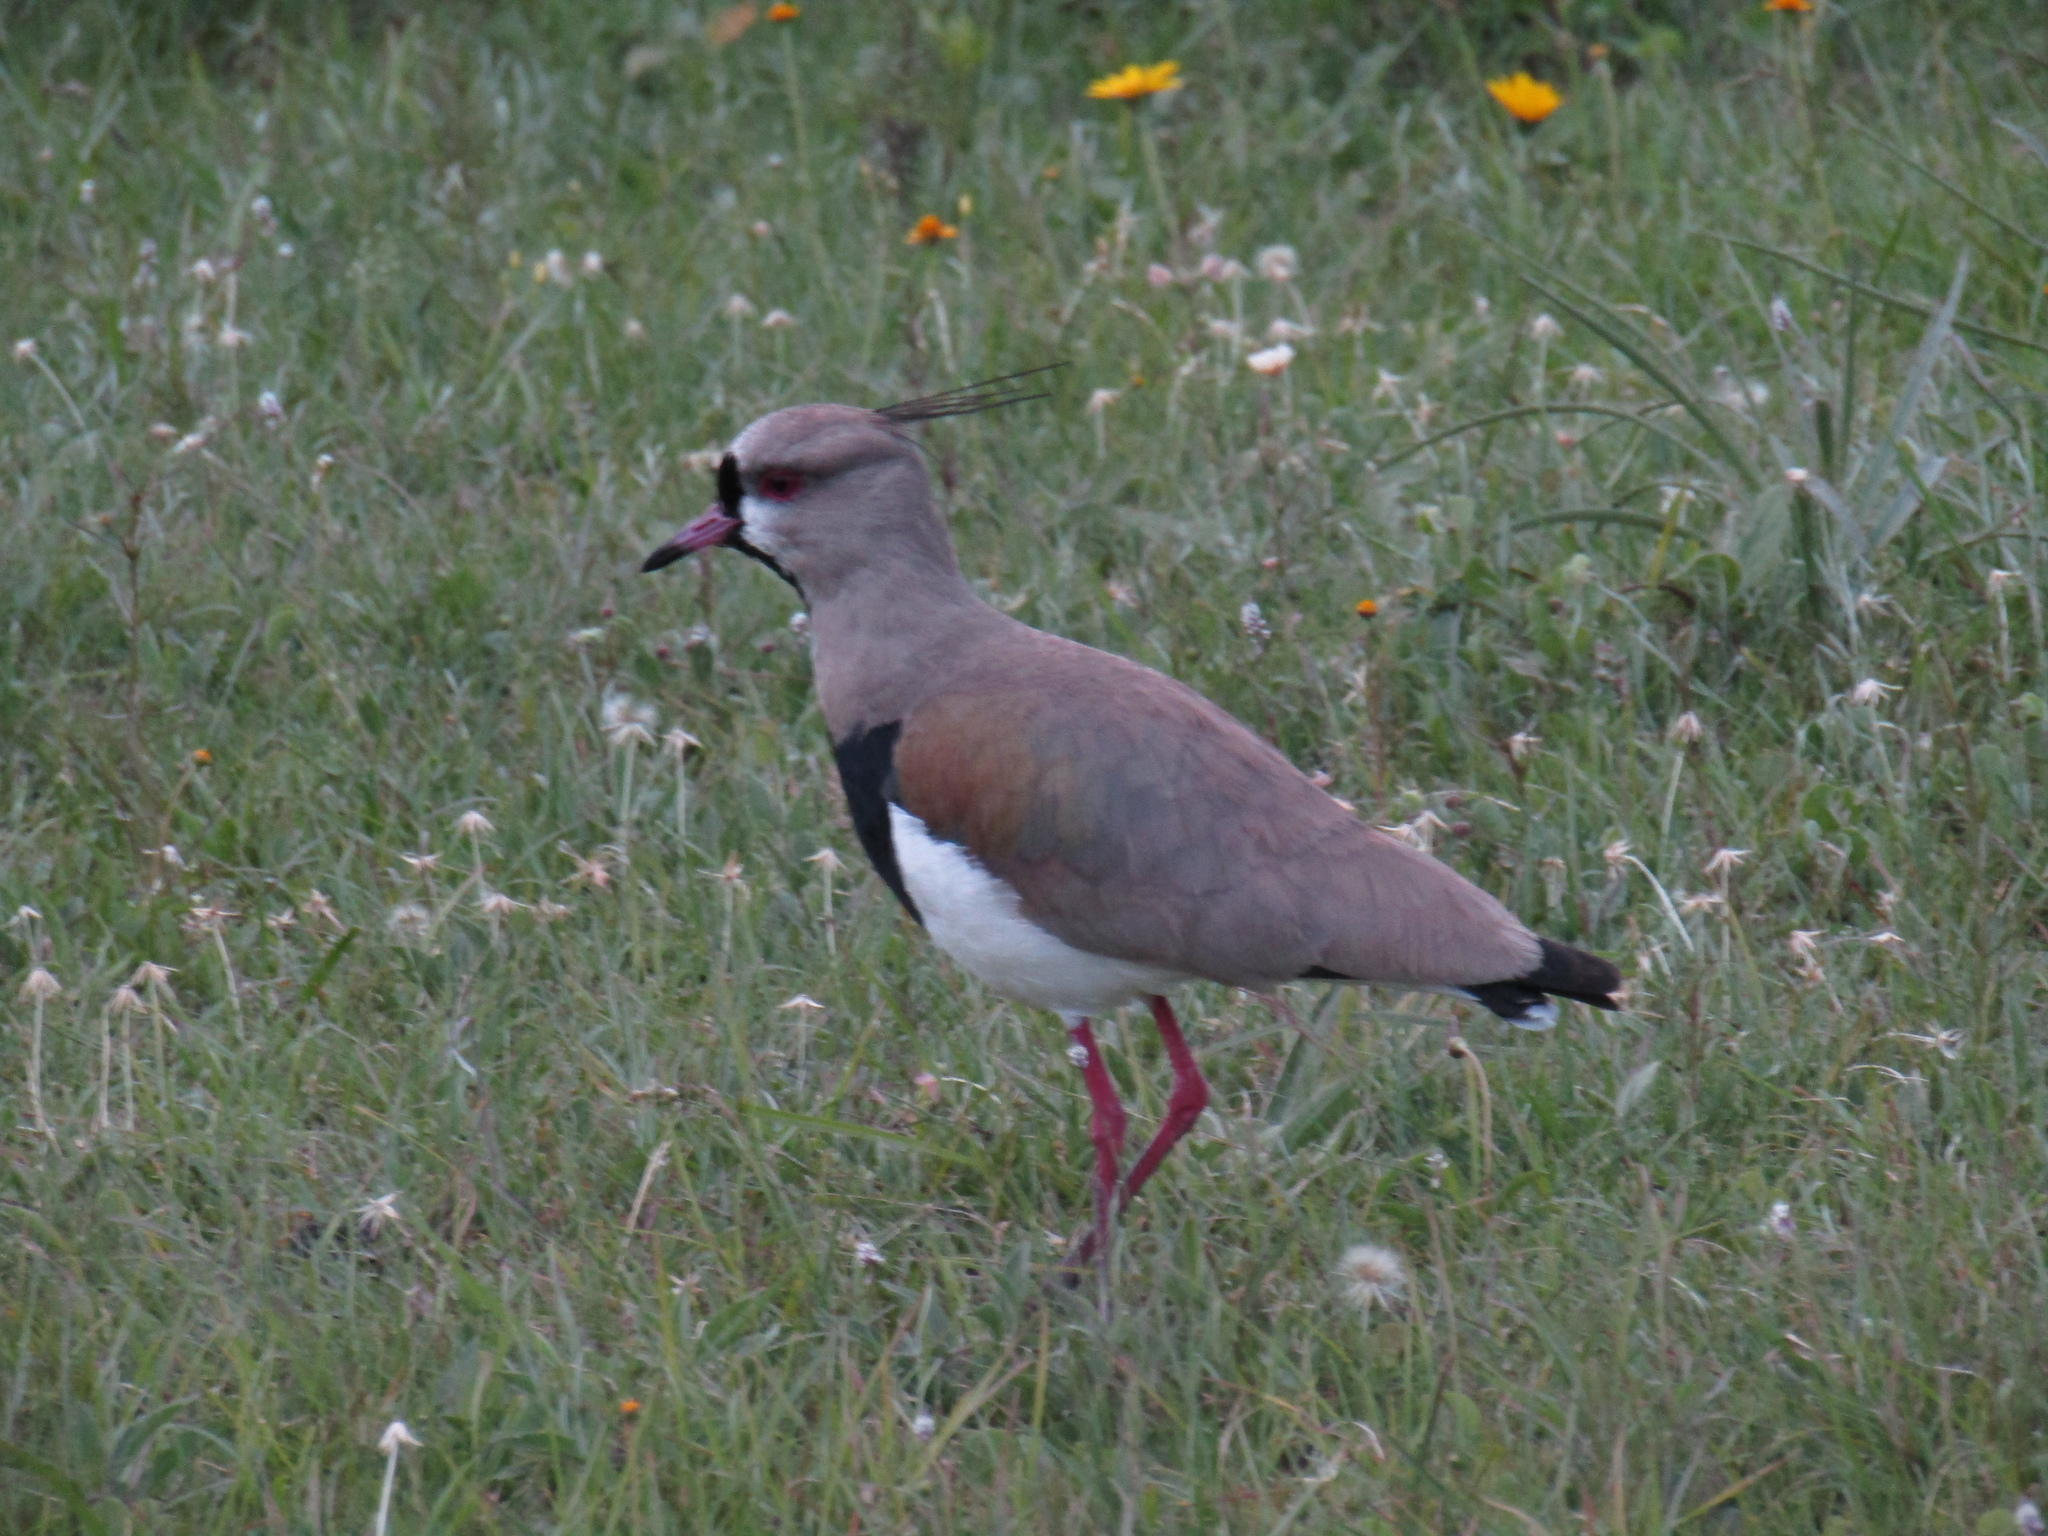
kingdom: Animalia
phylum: Chordata
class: Aves
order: Charadriiformes
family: Charadriidae
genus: Vanellus
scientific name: Vanellus chilensis
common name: Southern lapwing
